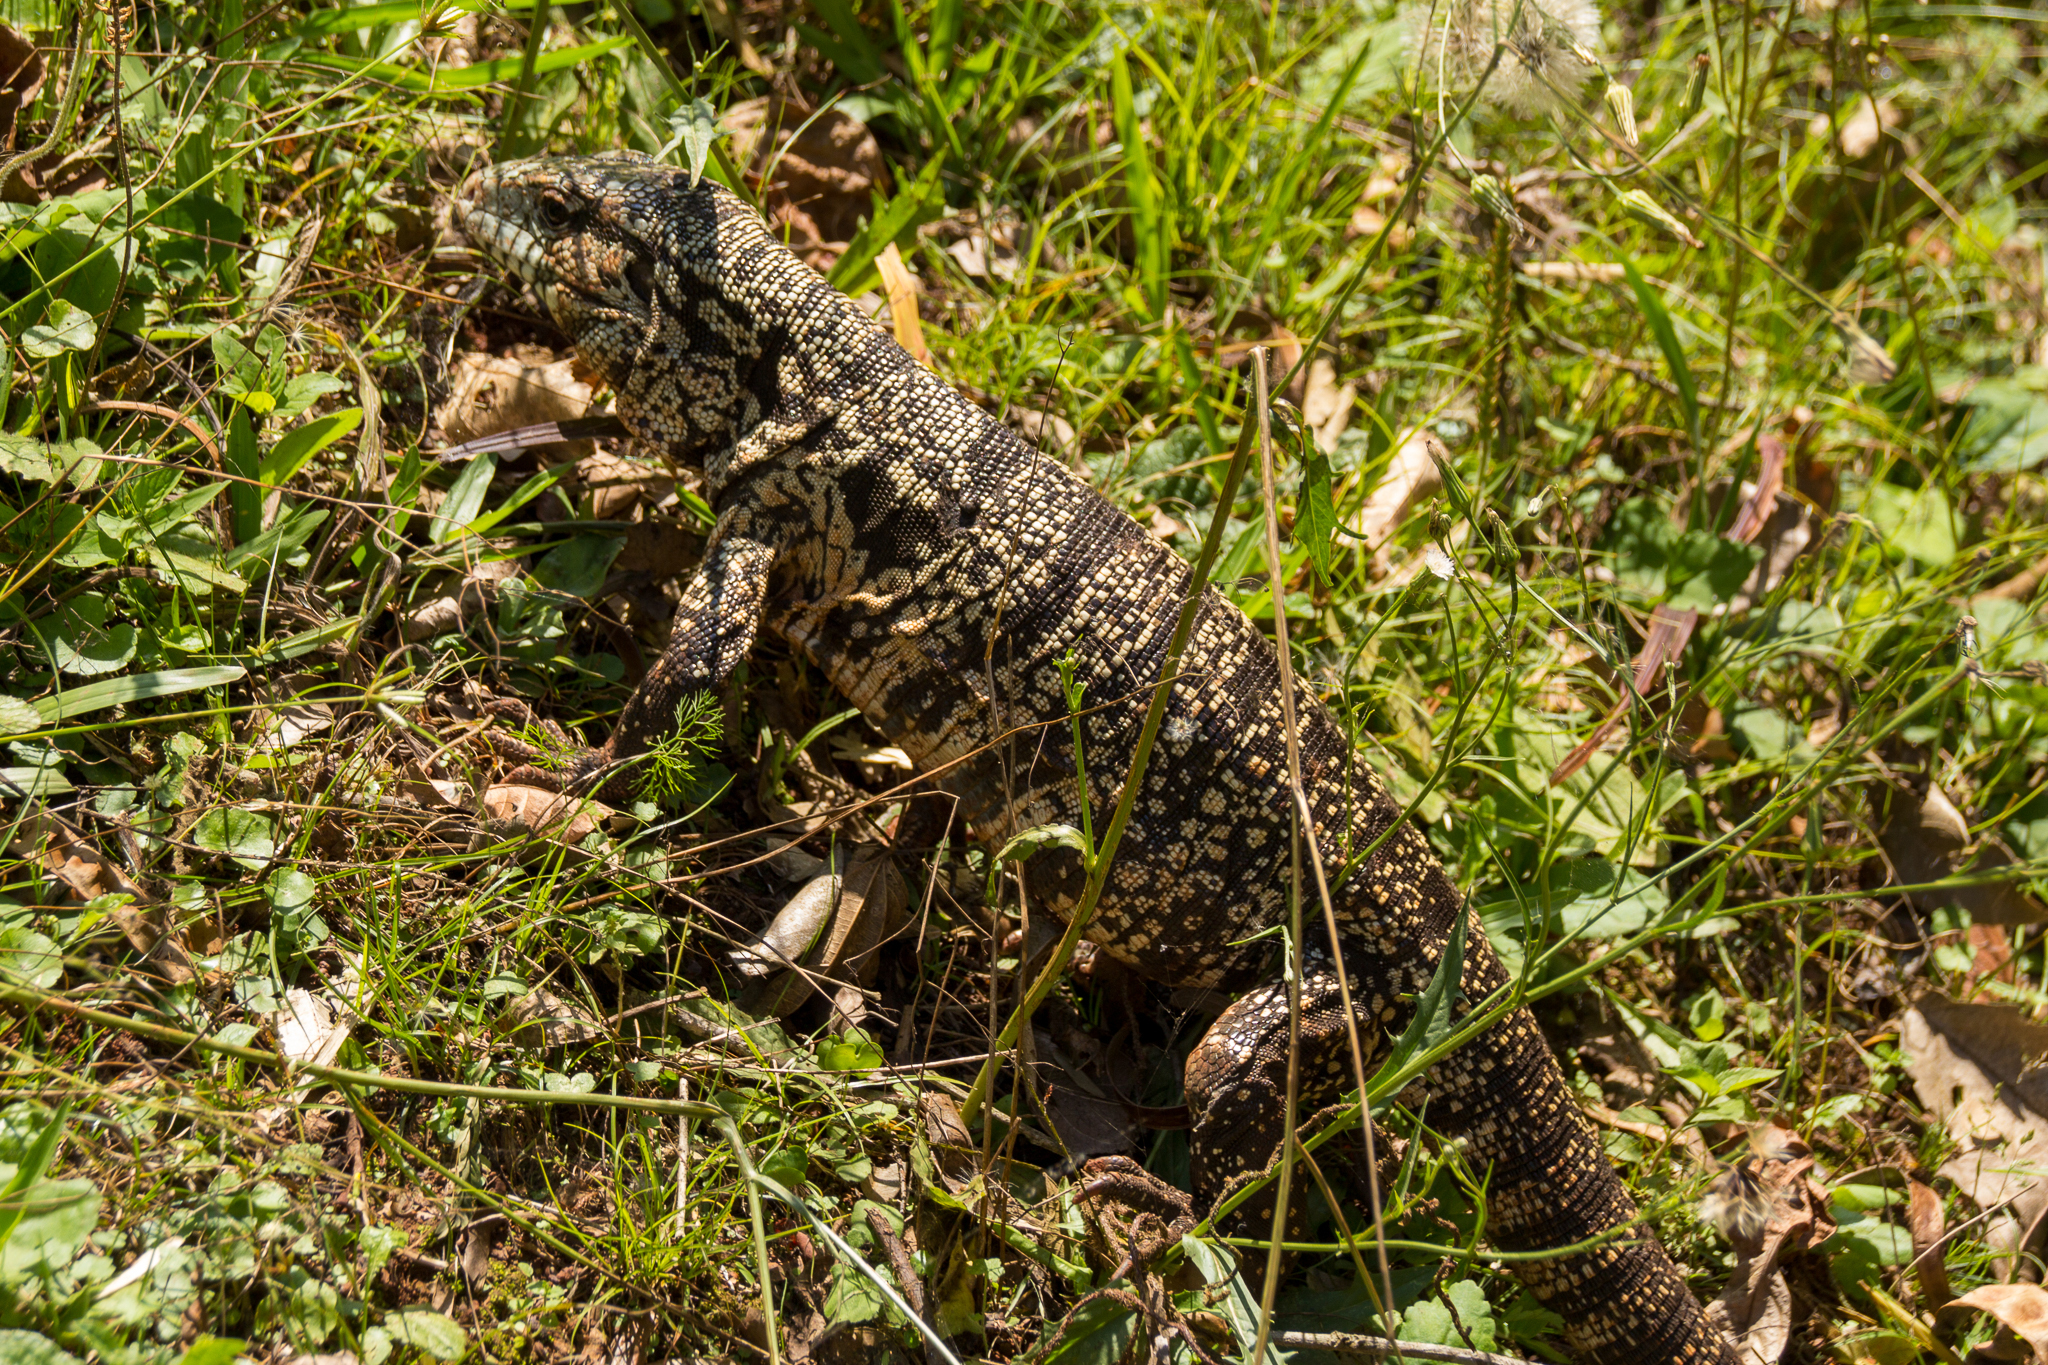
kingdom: Animalia
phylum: Chordata
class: Squamata
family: Teiidae
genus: Salvator
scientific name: Salvator merianae
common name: Argentine black and white tegu
